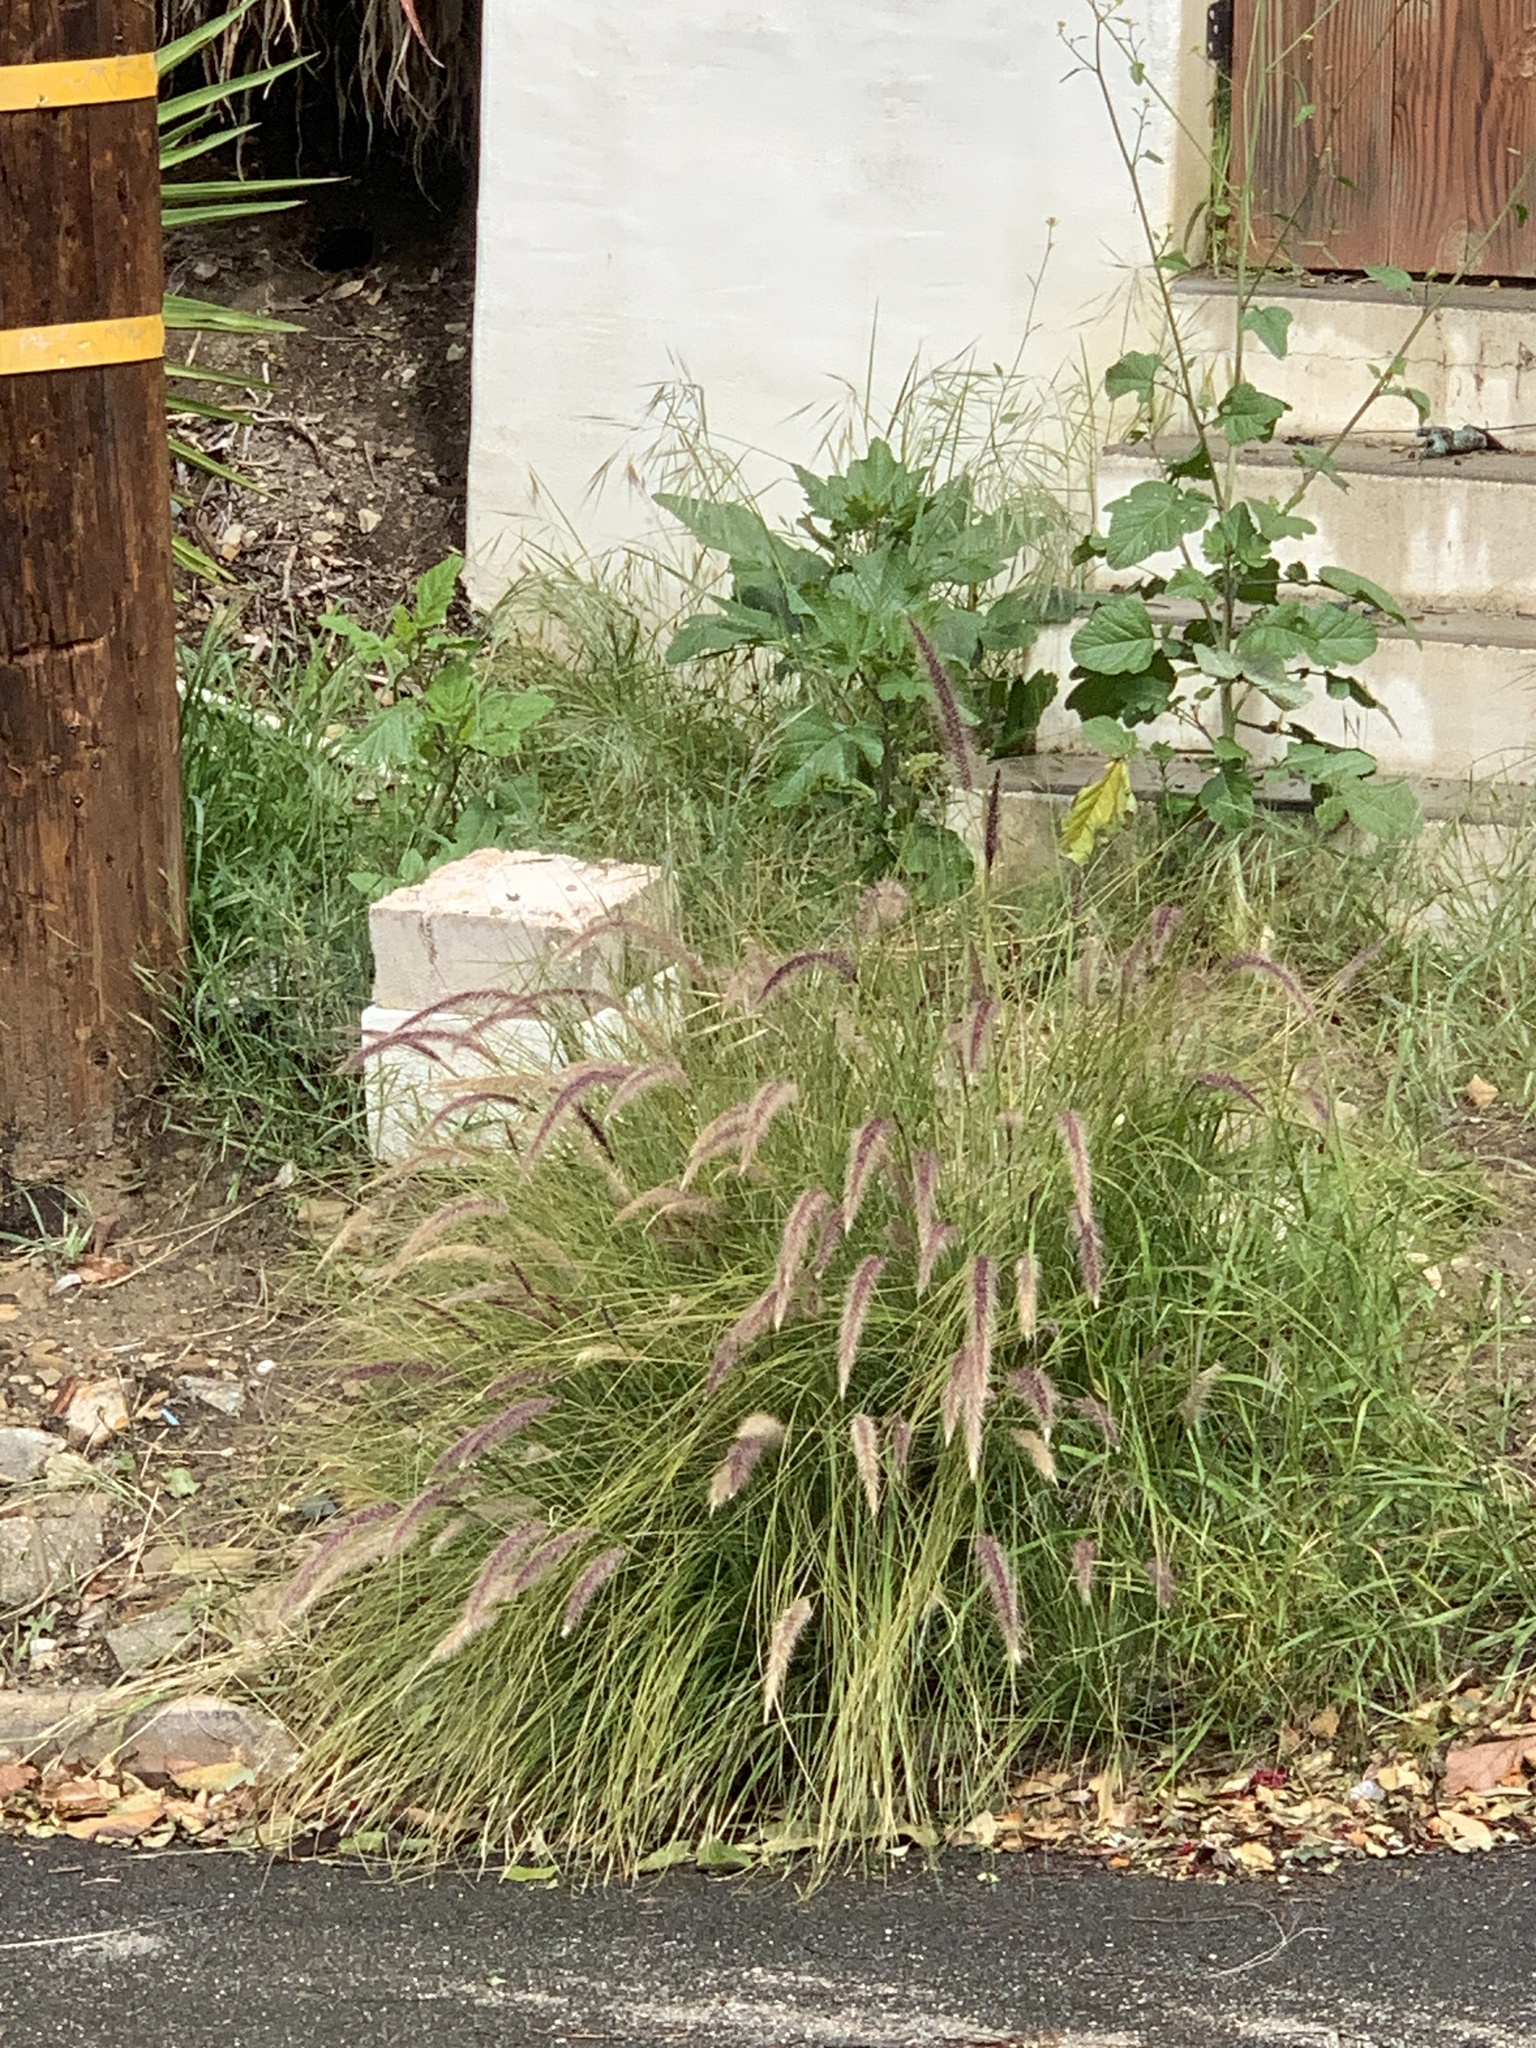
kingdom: Plantae
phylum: Tracheophyta
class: Liliopsida
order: Poales
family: Poaceae
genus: Cenchrus
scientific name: Cenchrus setaceus
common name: Crimson fountaingrass
